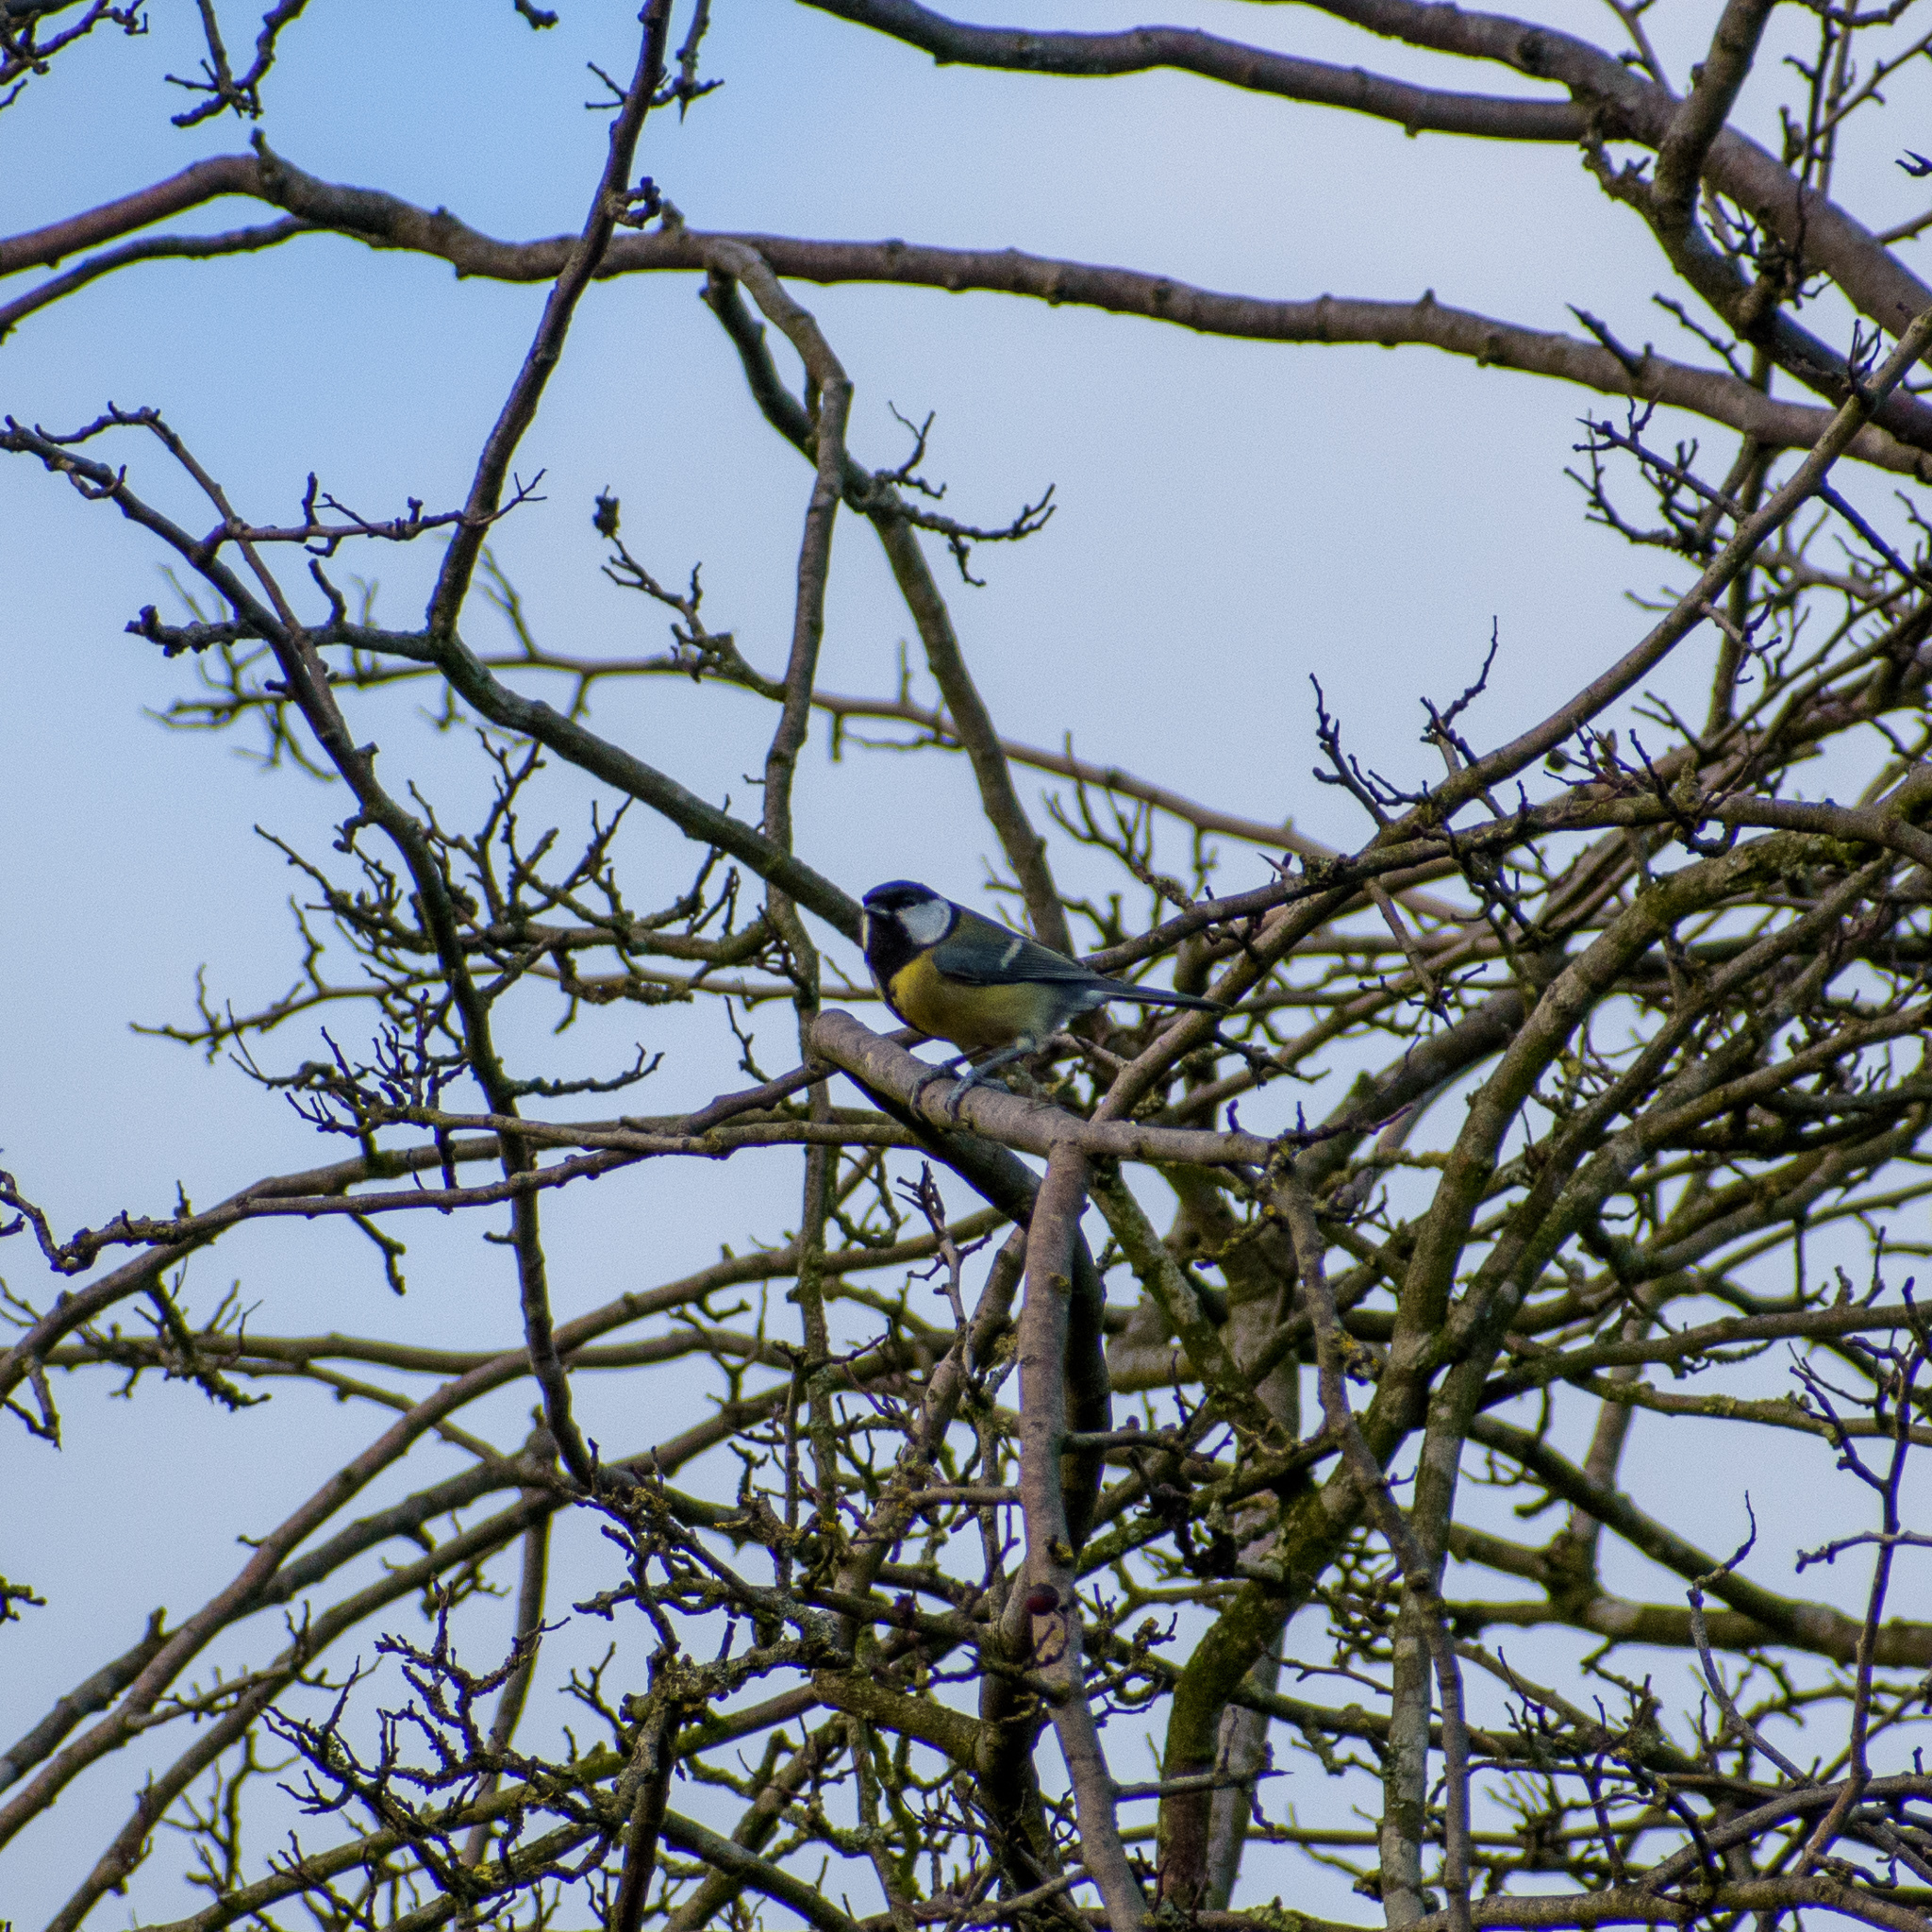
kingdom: Animalia
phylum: Chordata
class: Aves
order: Passeriformes
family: Paridae
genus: Parus
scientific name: Parus major
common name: Great tit
